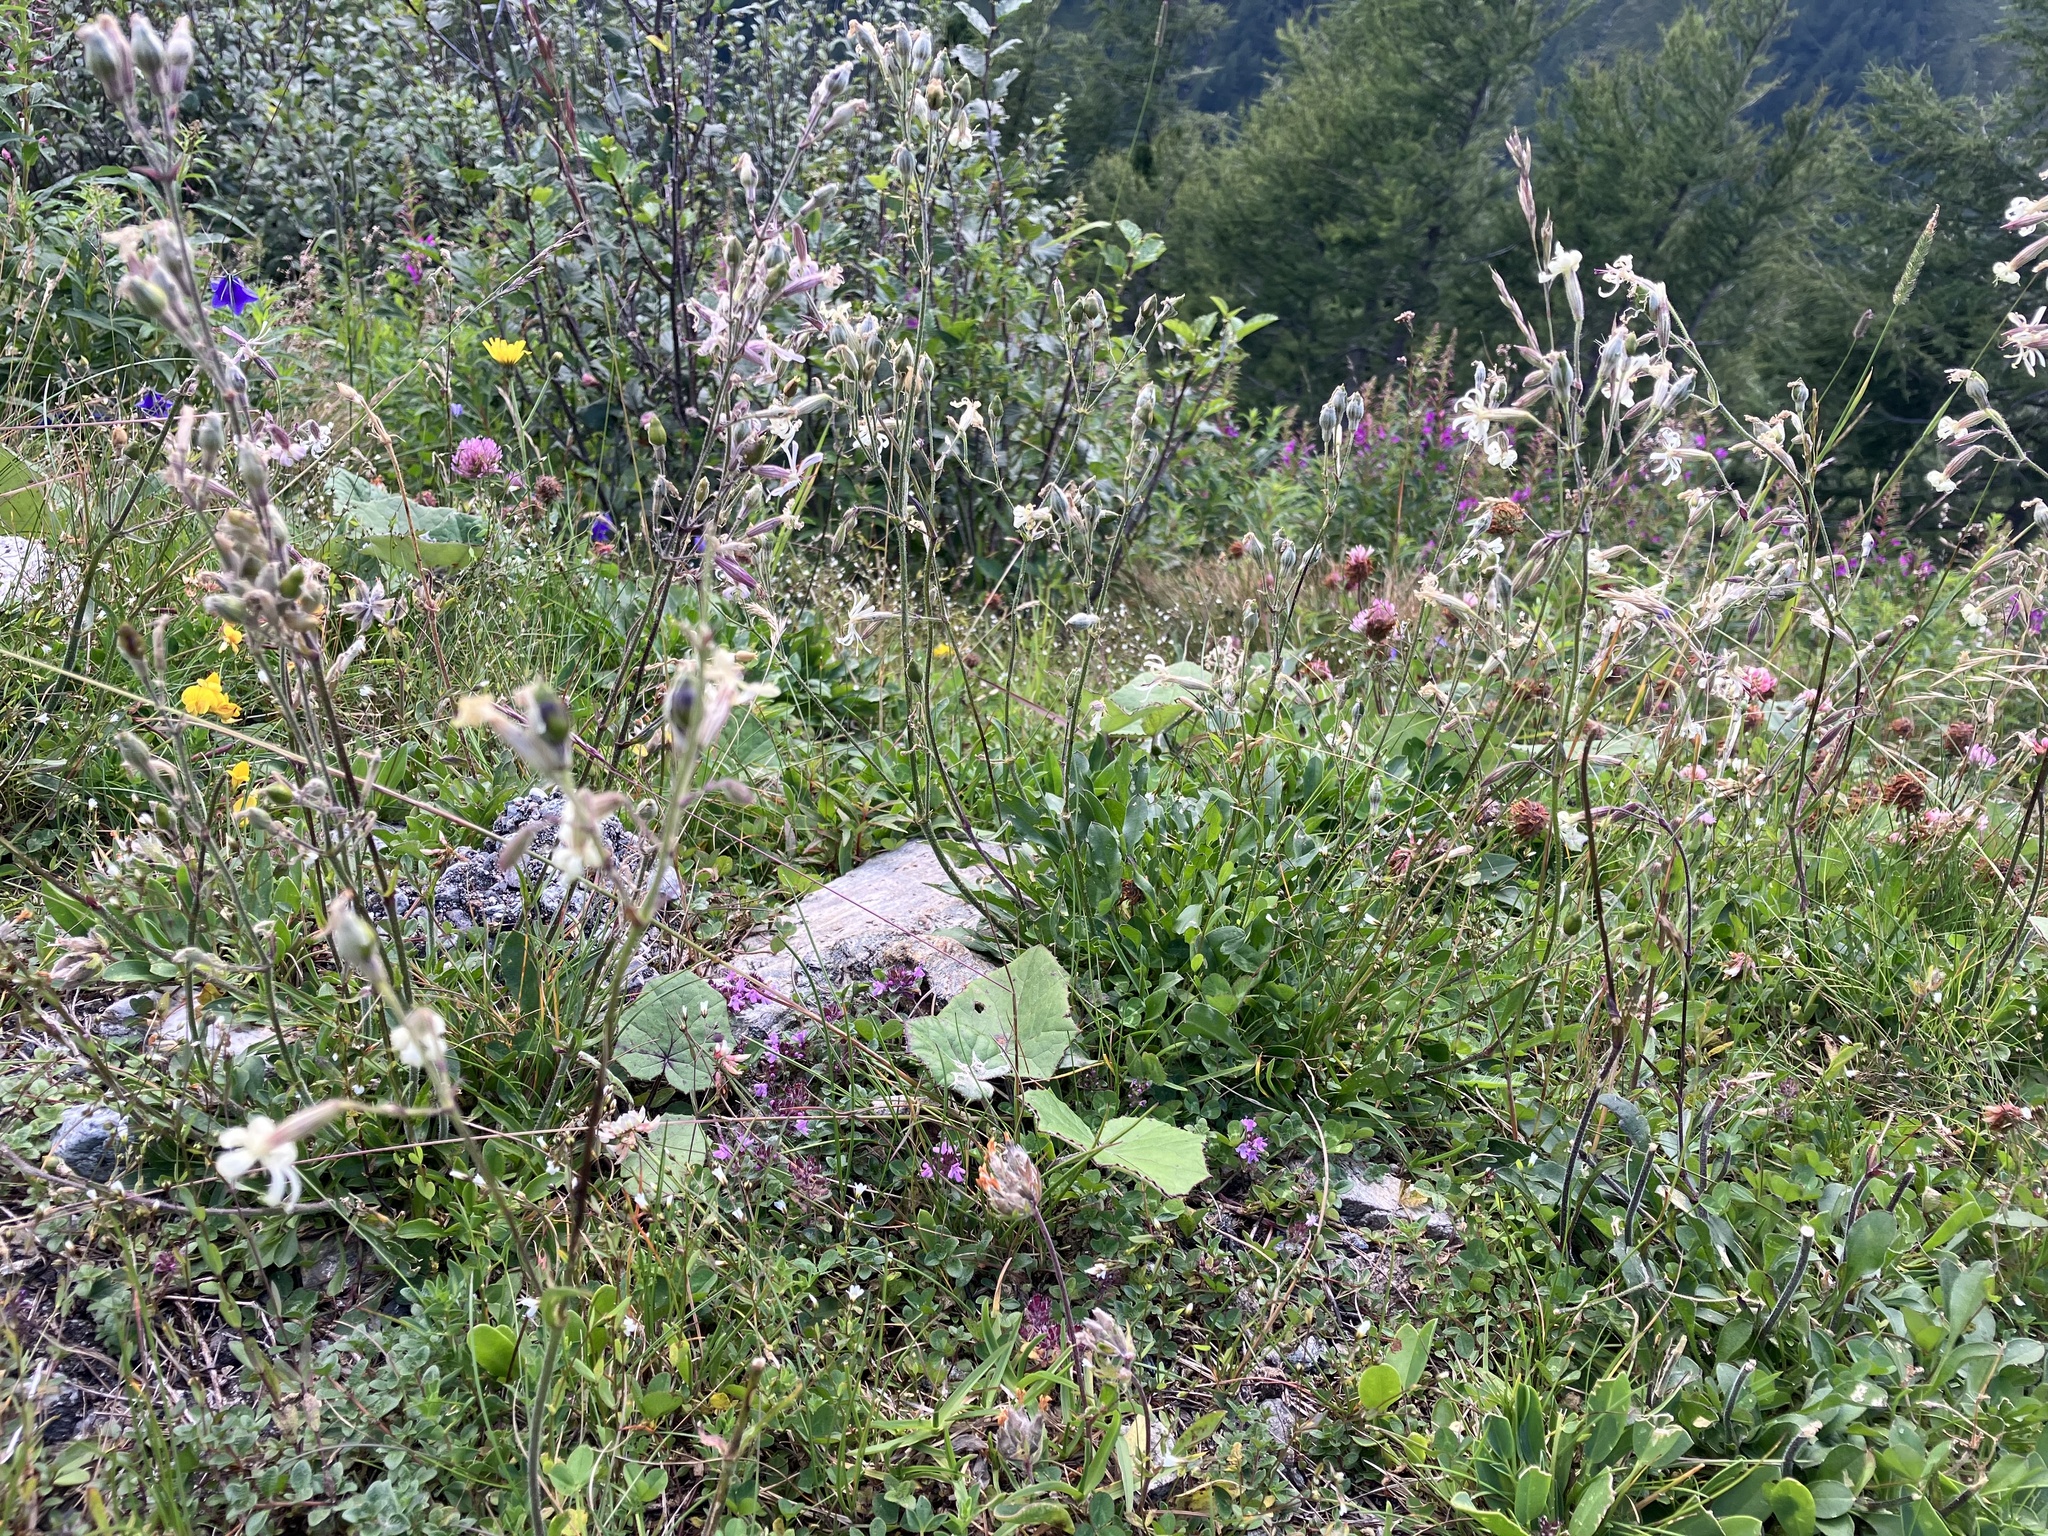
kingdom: Plantae
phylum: Tracheophyta
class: Magnoliopsida
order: Caryophyllales
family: Caryophyllaceae
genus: Silene
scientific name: Silene nutans
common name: Nottingham catchfly
